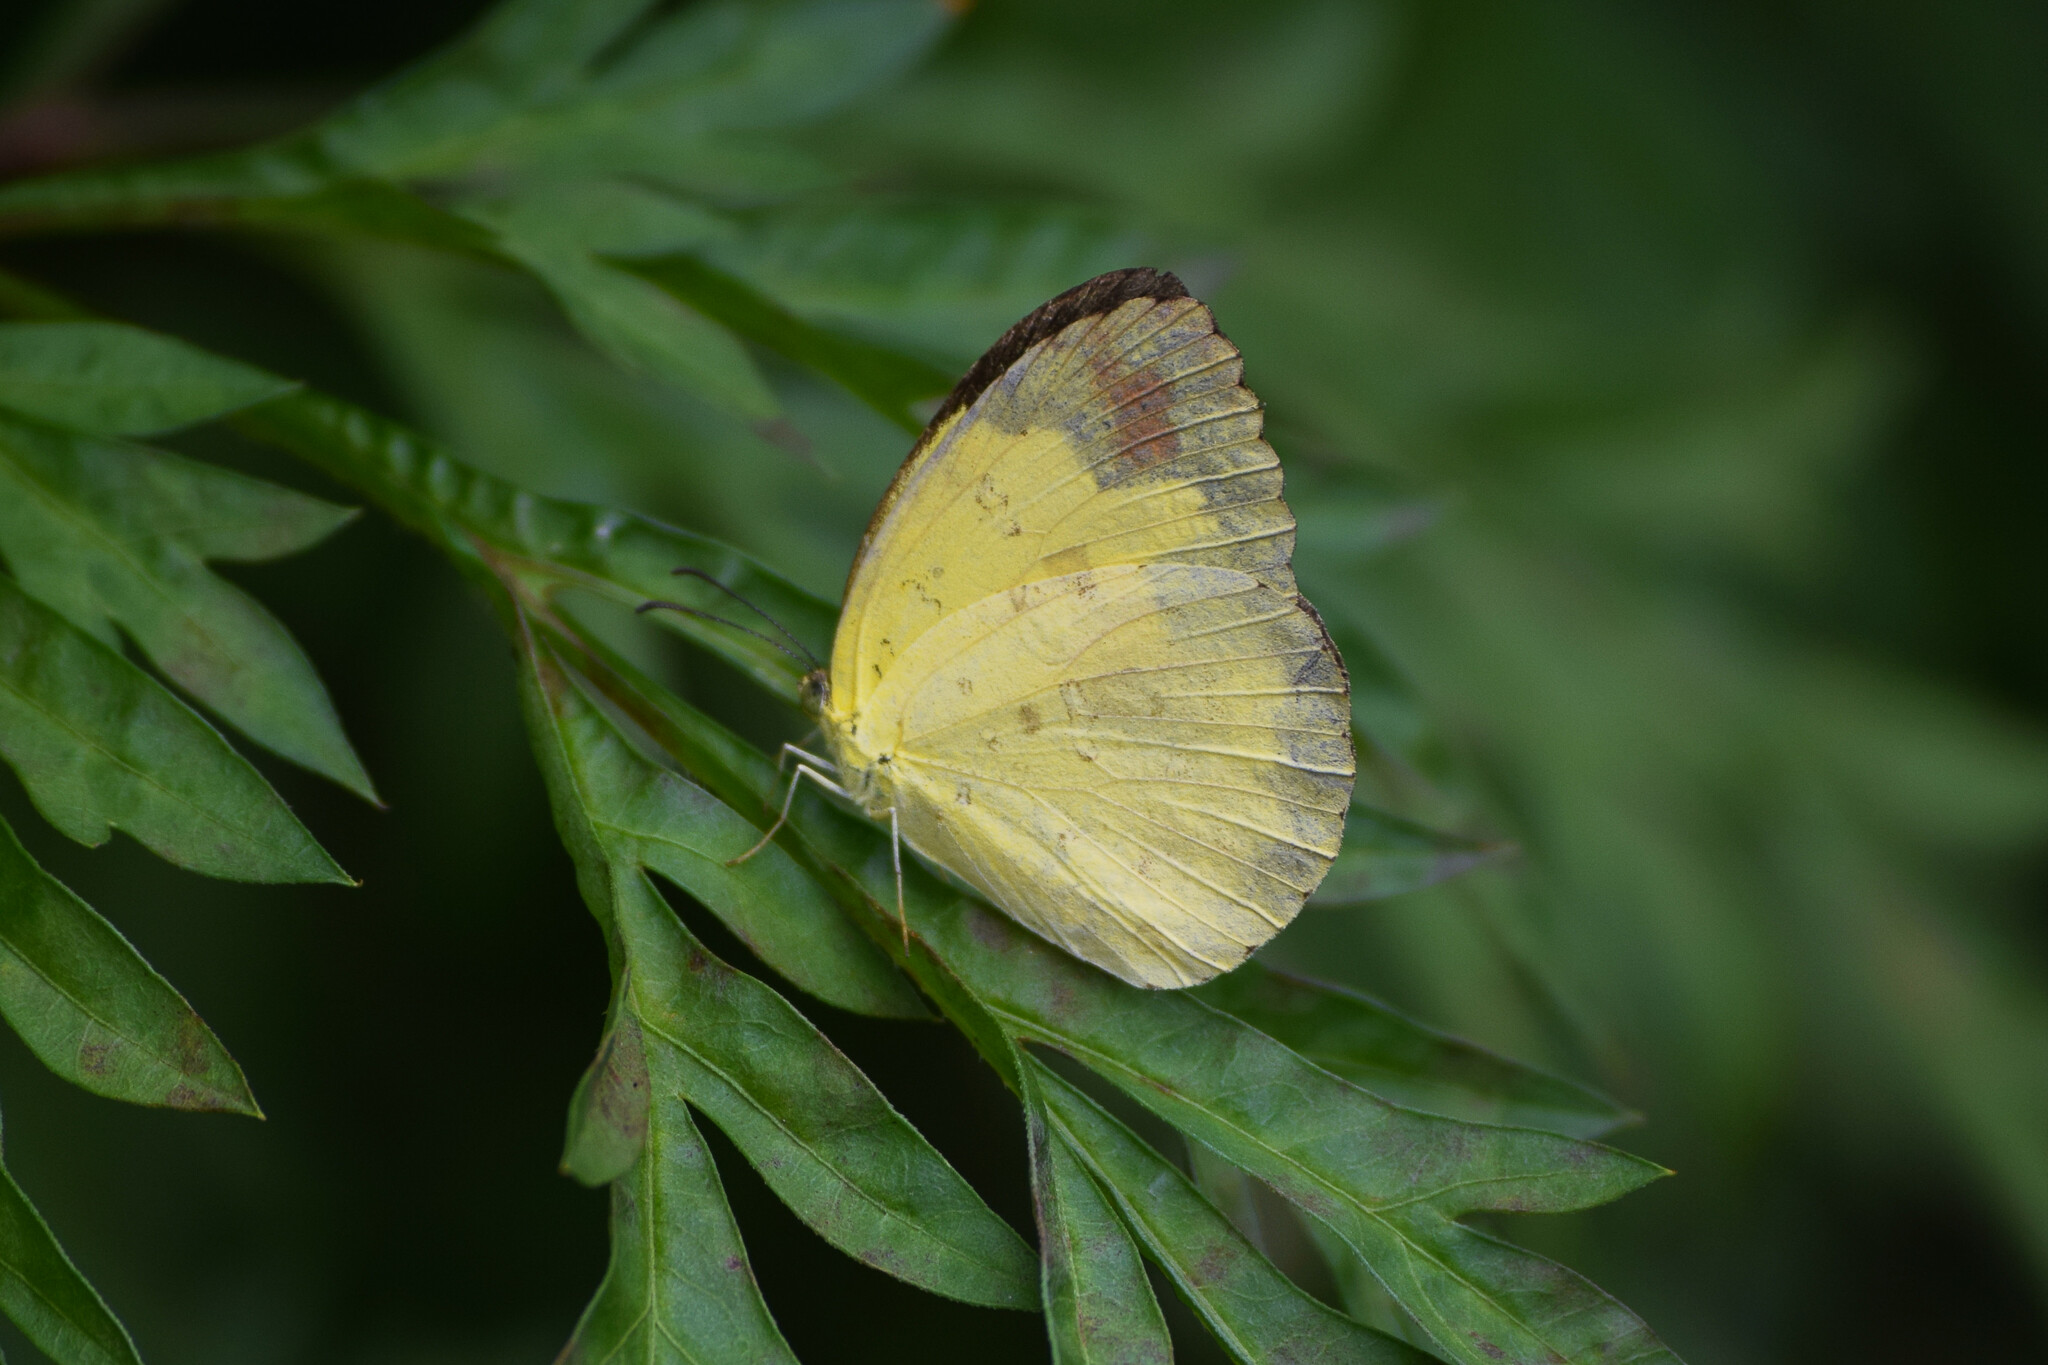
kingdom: Animalia
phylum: Arthropoda
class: Insecta
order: Lepidoptera
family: Pieridae
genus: Eurema
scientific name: Eurema blanda
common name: Three-spot grass yellow
